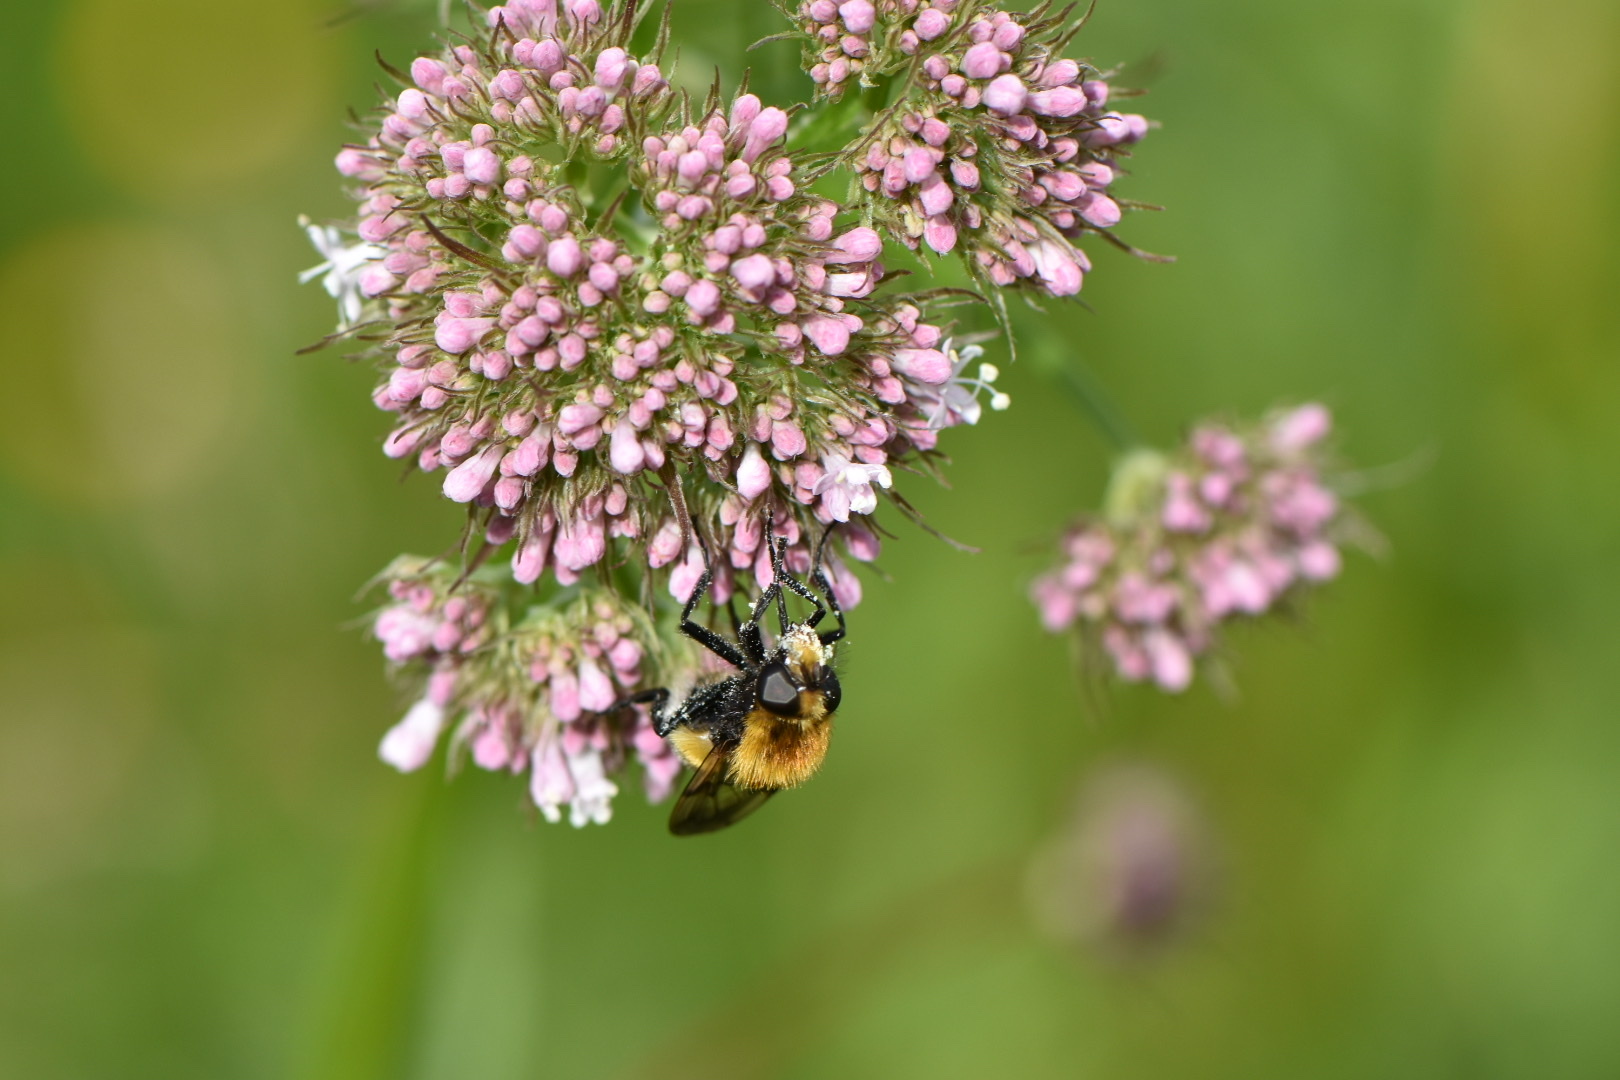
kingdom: Animalia
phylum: Arthropoda
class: Insecta
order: Diptera
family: Syrphidae
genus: Volucella
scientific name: Volucella bombylans
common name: Bumble bee hover fly
